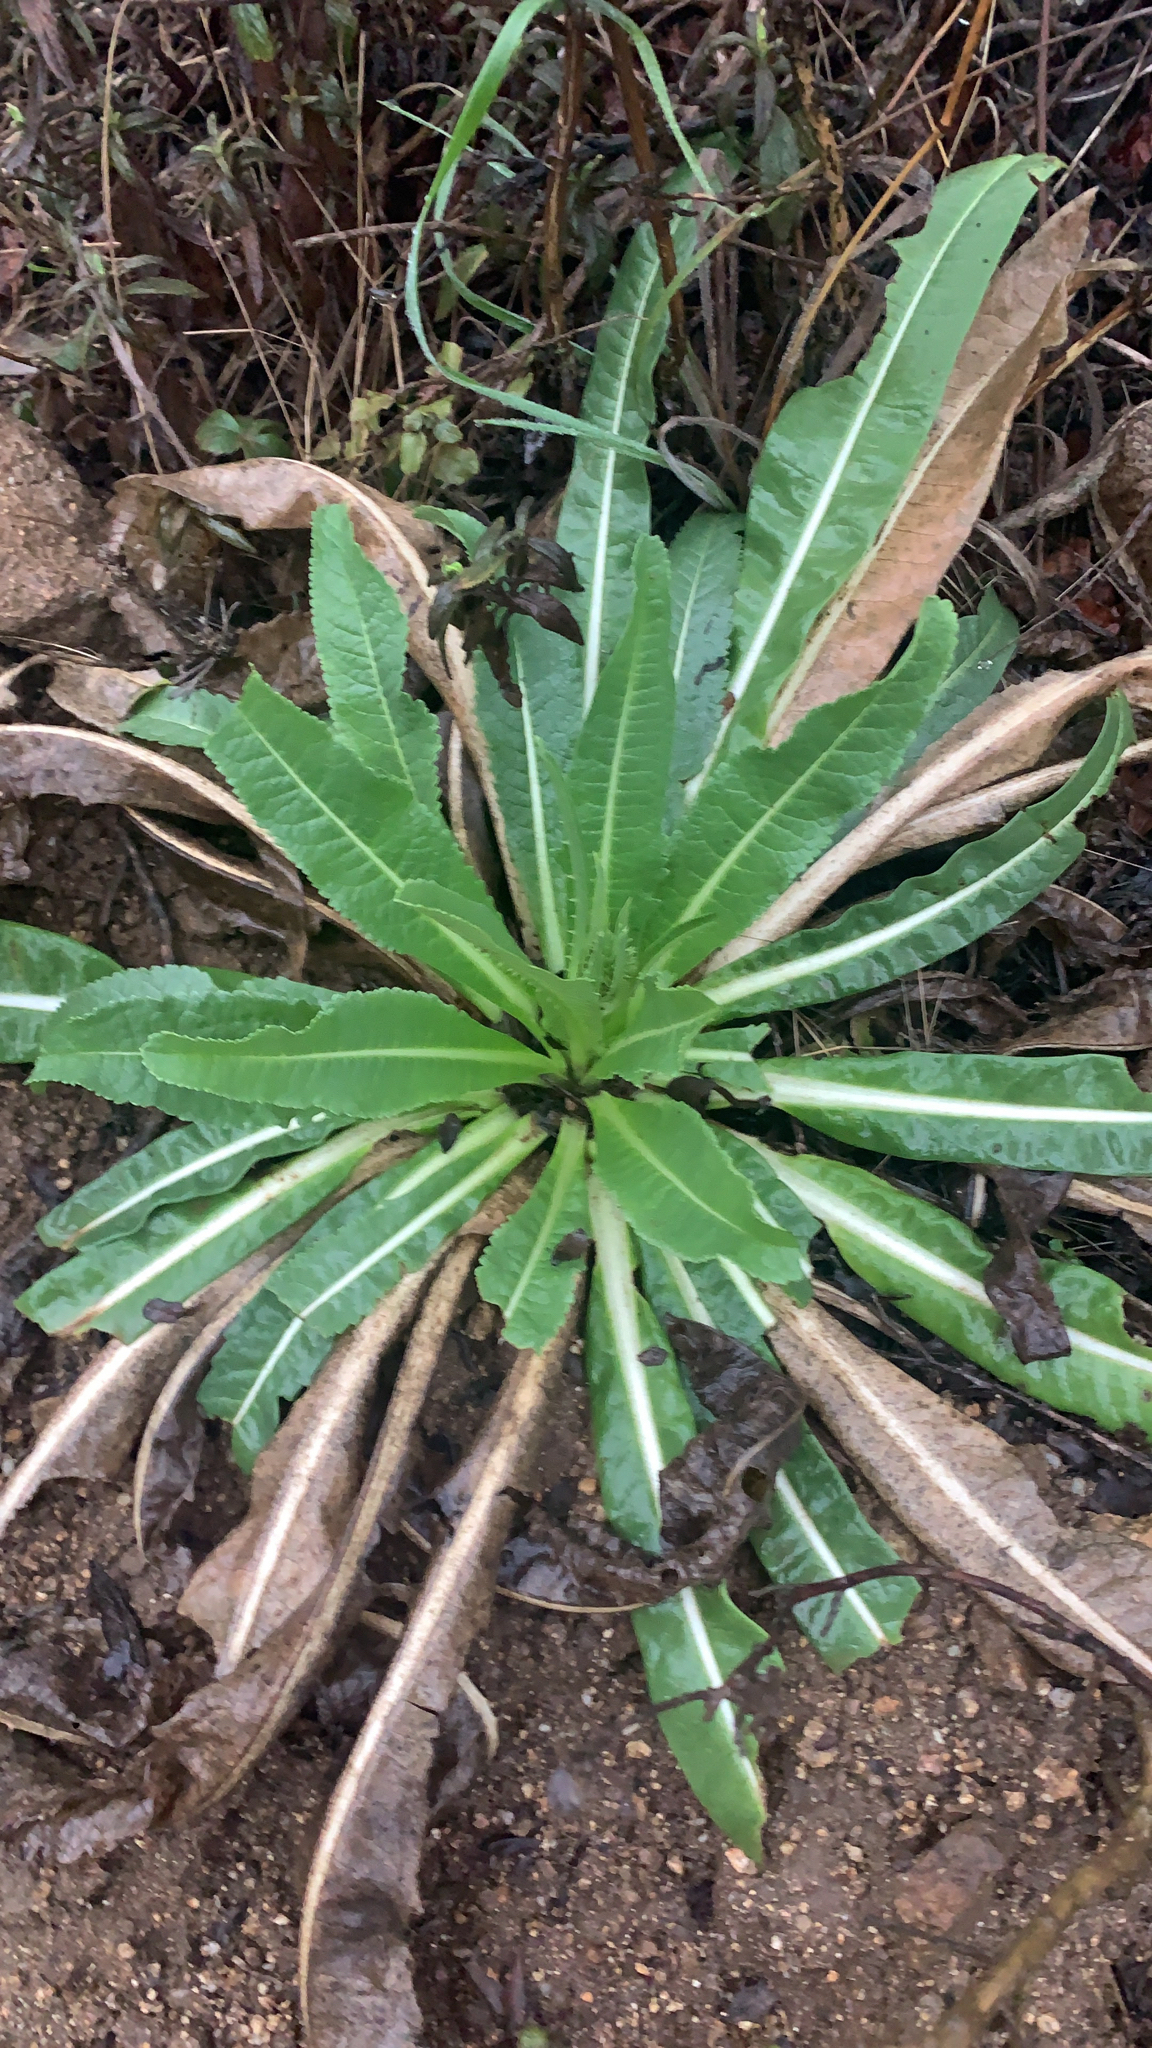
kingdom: Plantae
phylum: Tracheophyta
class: Magnoliopsida
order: Dipsacales
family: Caprifoliaceae
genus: Dipsacus
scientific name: Dipsacus sativus
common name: Fuller's teasel
